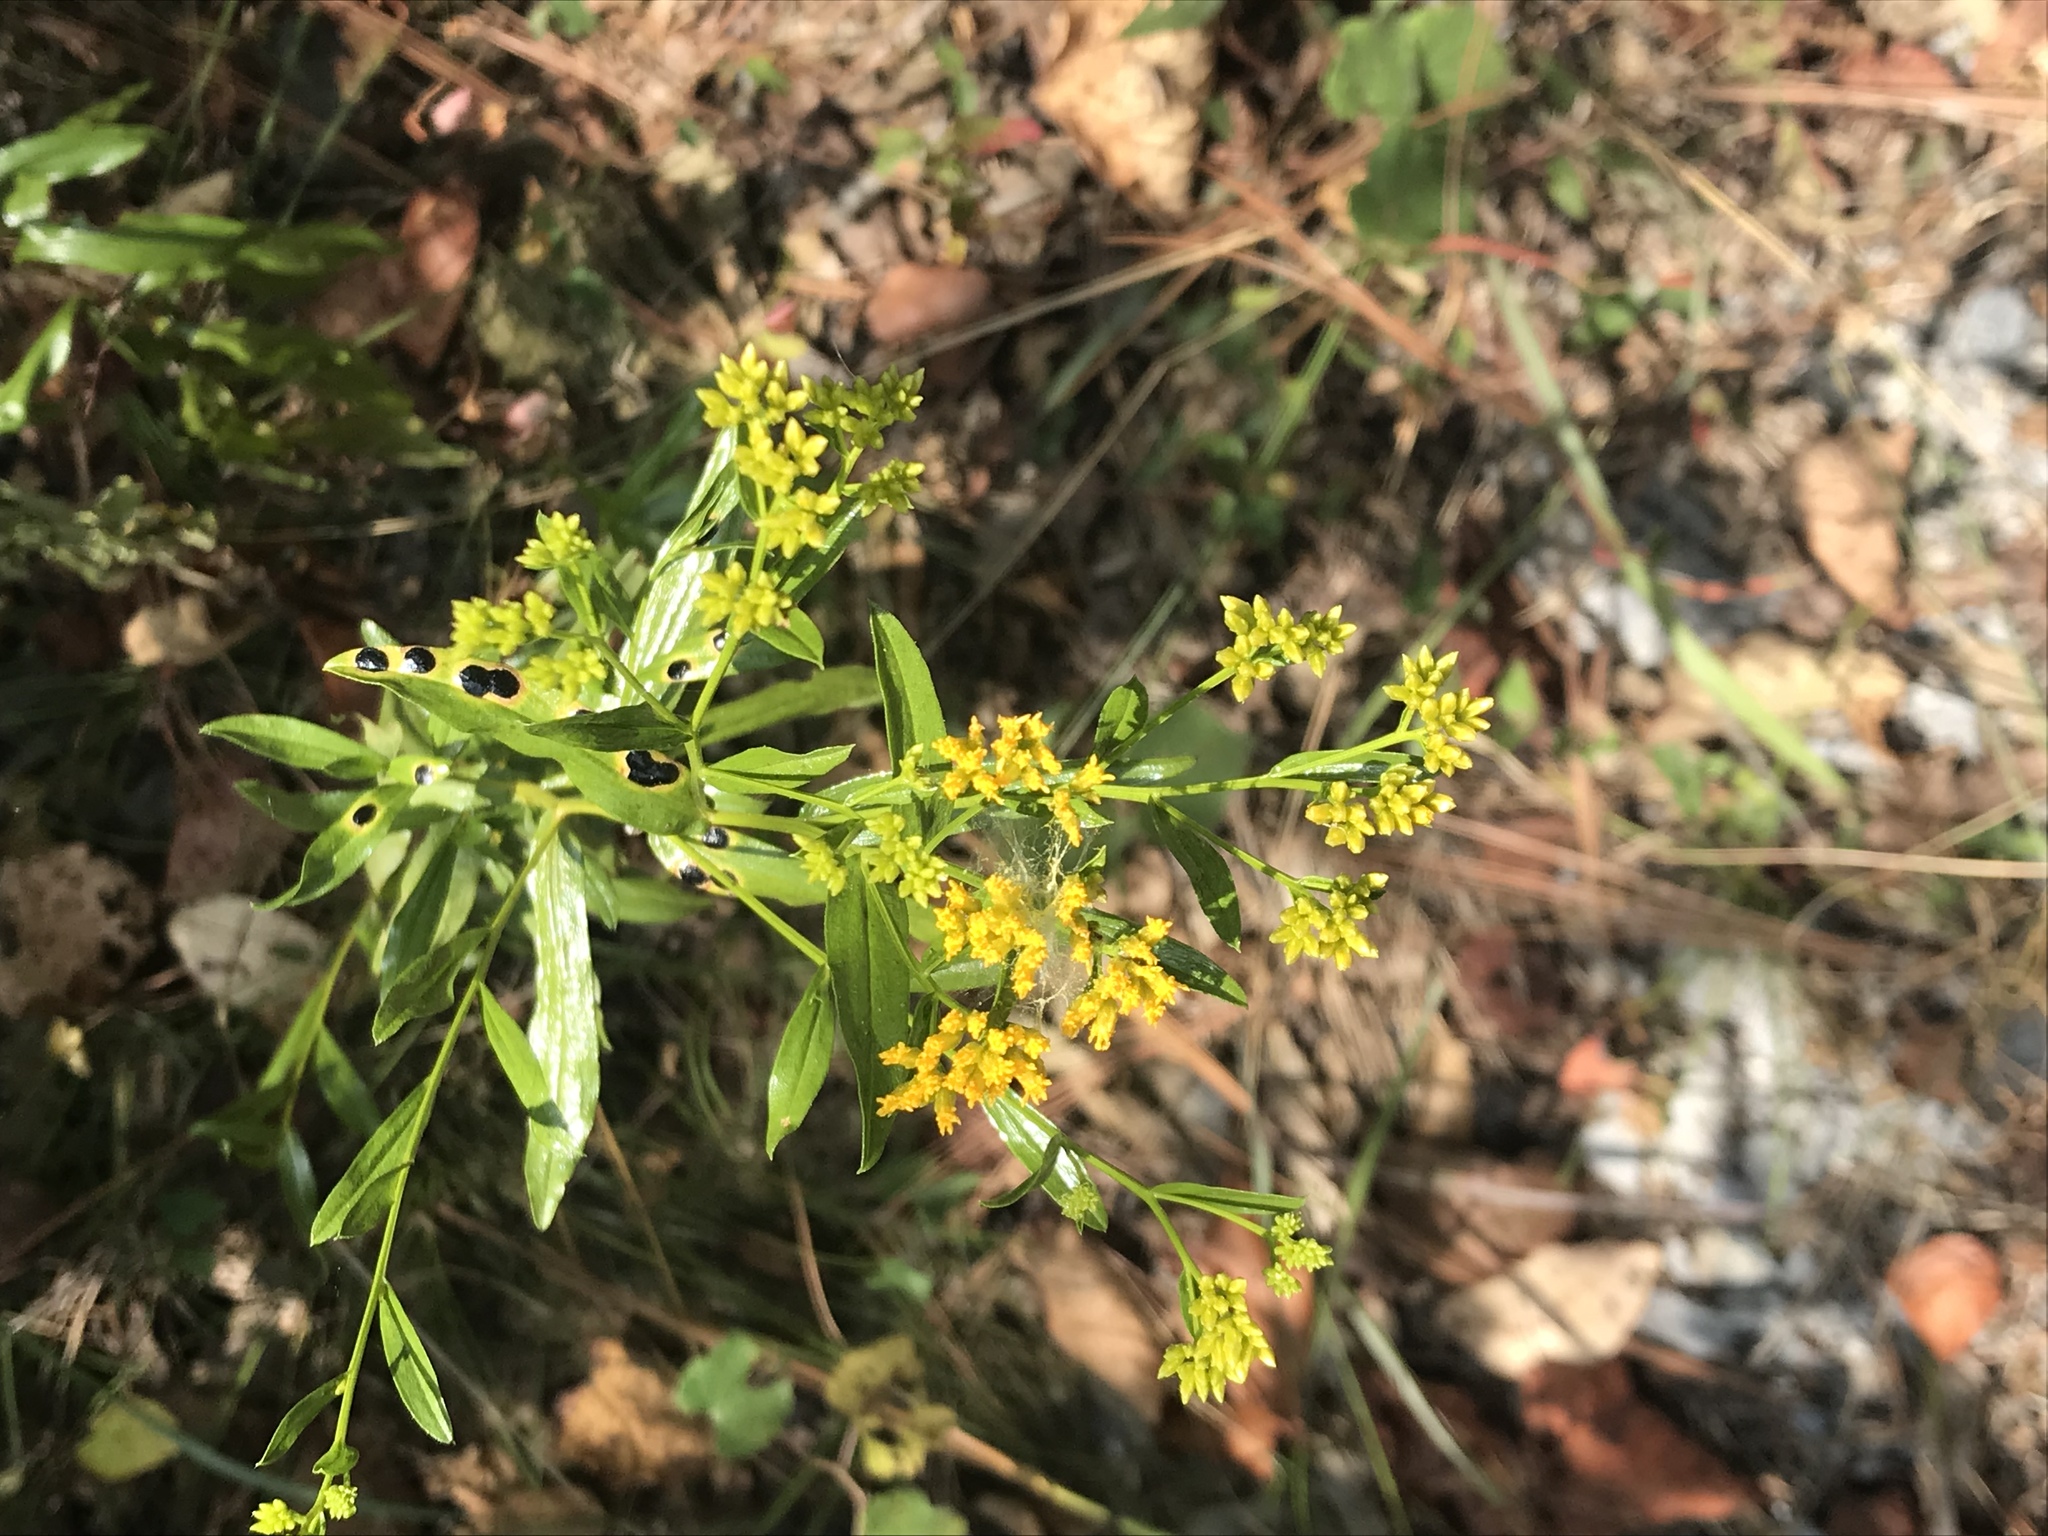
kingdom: Plantae
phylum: Tracheophyta
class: Magnoliopsida
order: Asterales
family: Asteraceae
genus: Gymnosperma
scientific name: Gymnosperma glutinosum
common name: Gumhead
